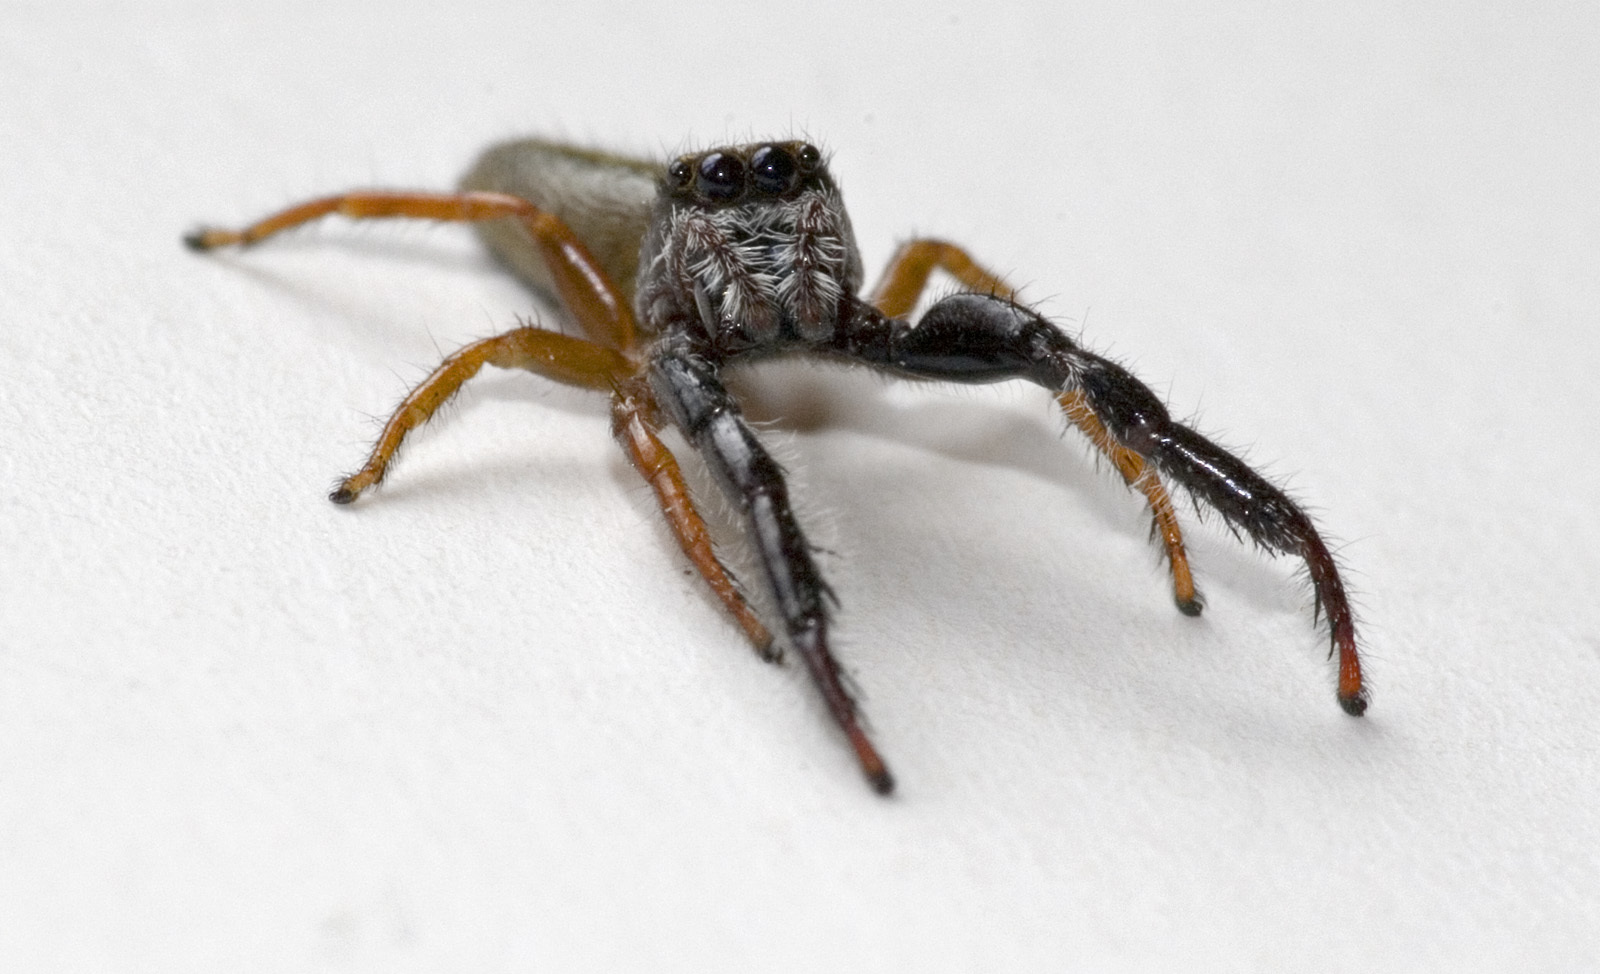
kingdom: Animalia
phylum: Arthropoda
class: Arachnida
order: Araneae
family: Salticidae
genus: Trite
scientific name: Trite planiceps
